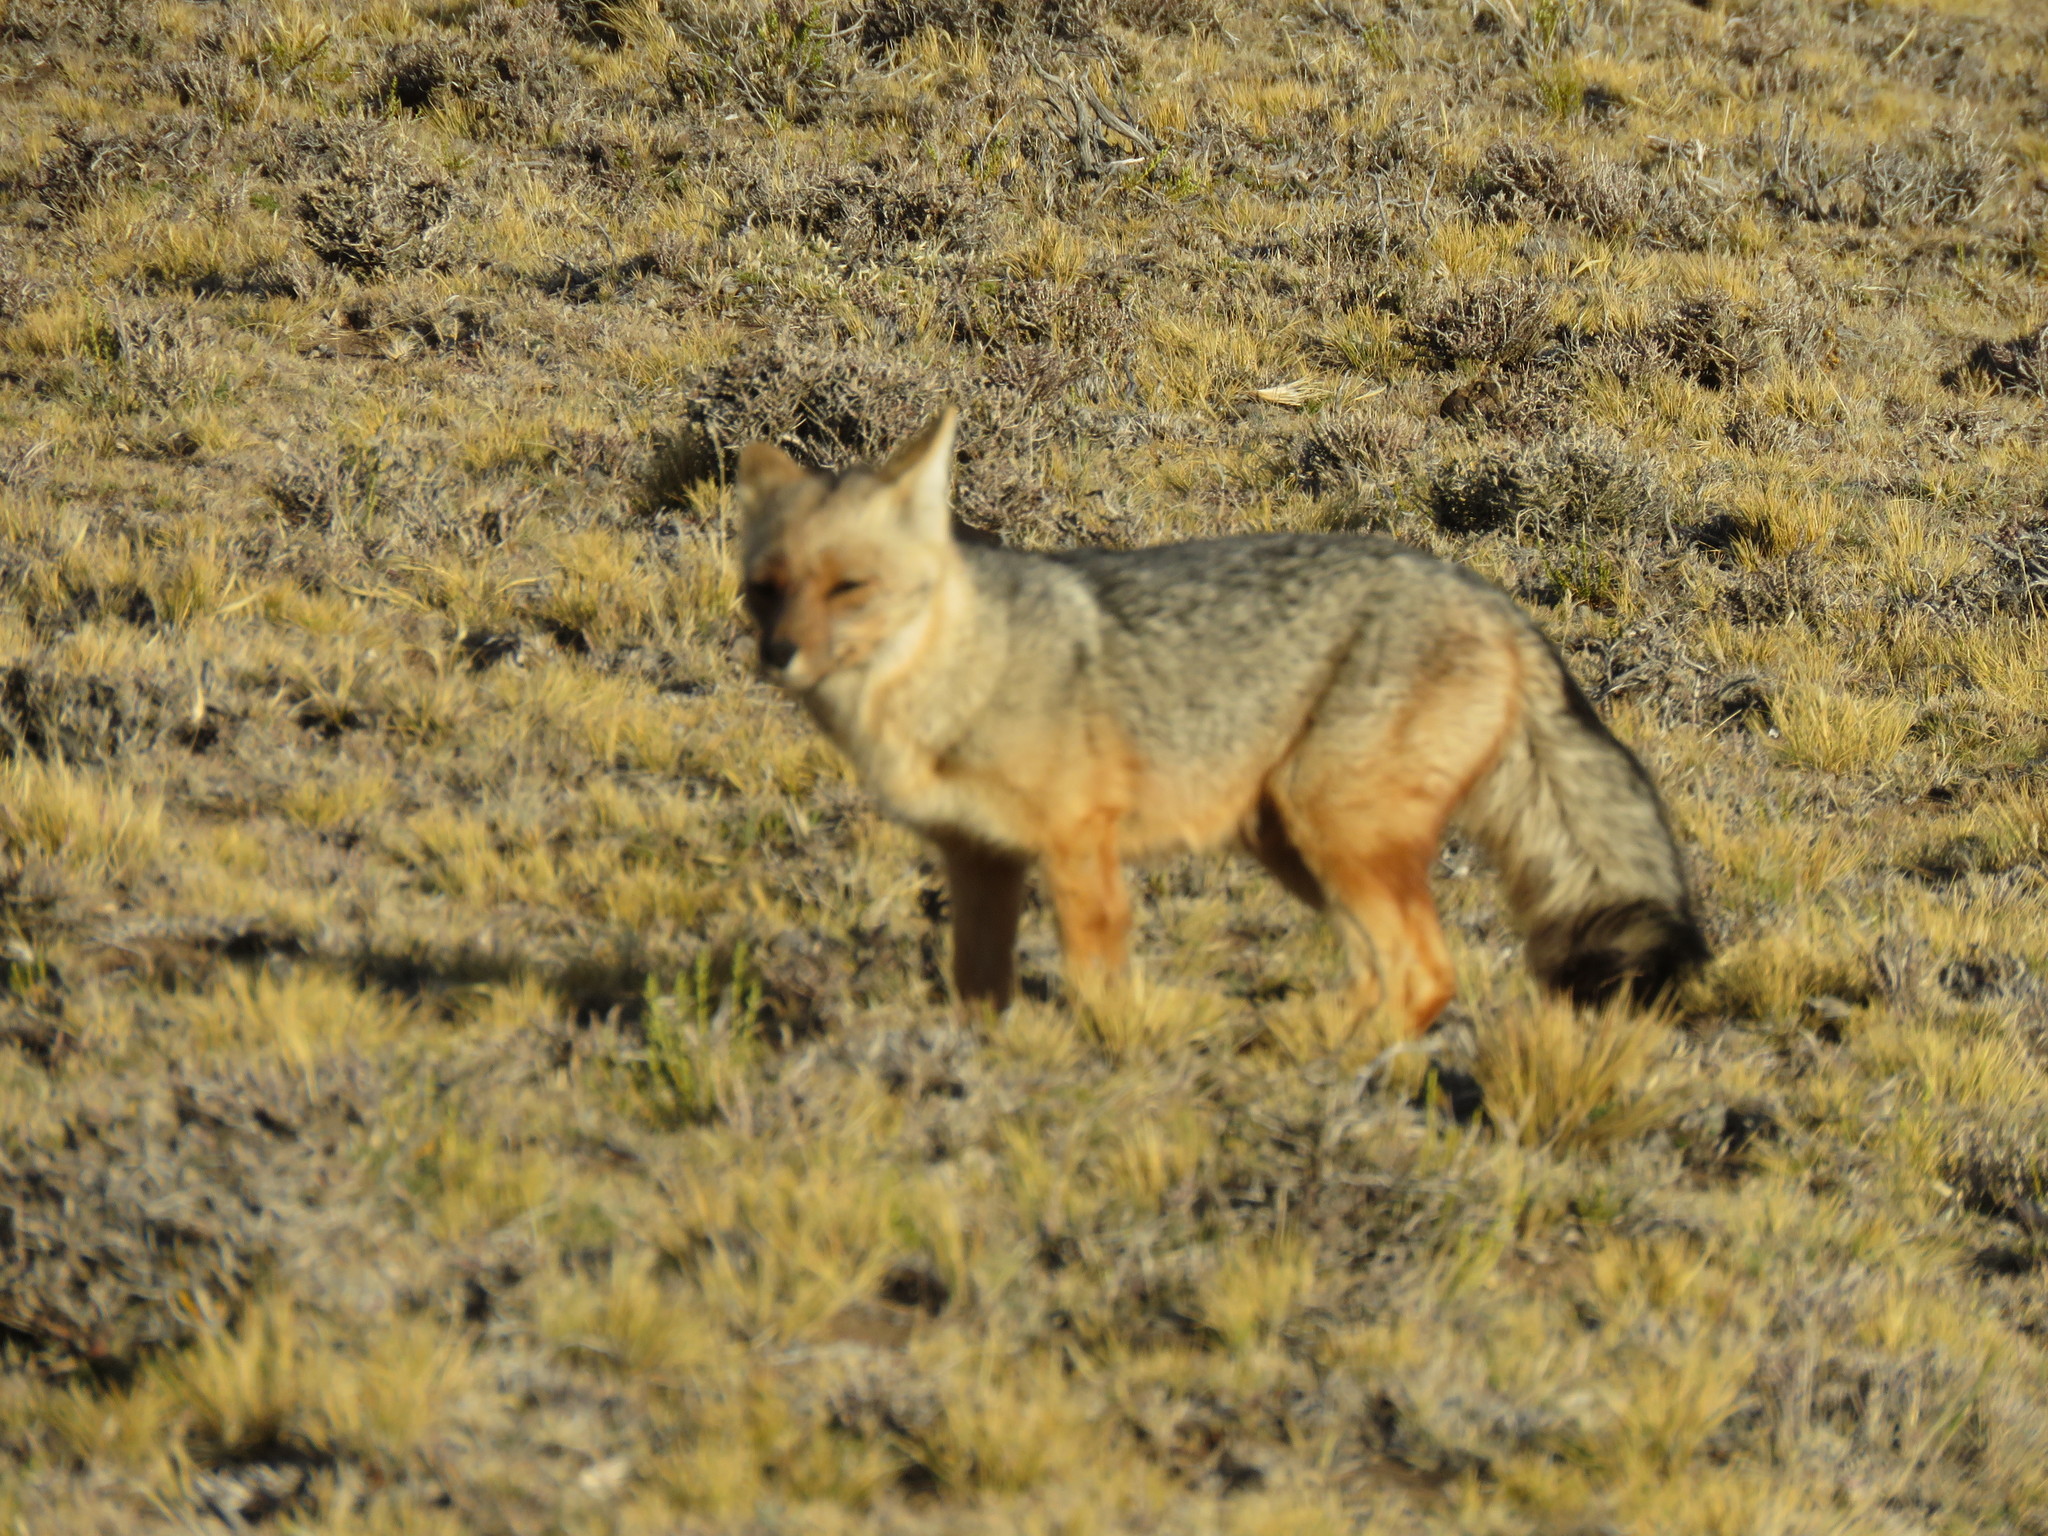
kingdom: Animalia
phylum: Chordata
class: Mammalia
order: Carnivora
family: Canidae
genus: Lycalopex
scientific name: Lycalopex culpaeus
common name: Culpeo
